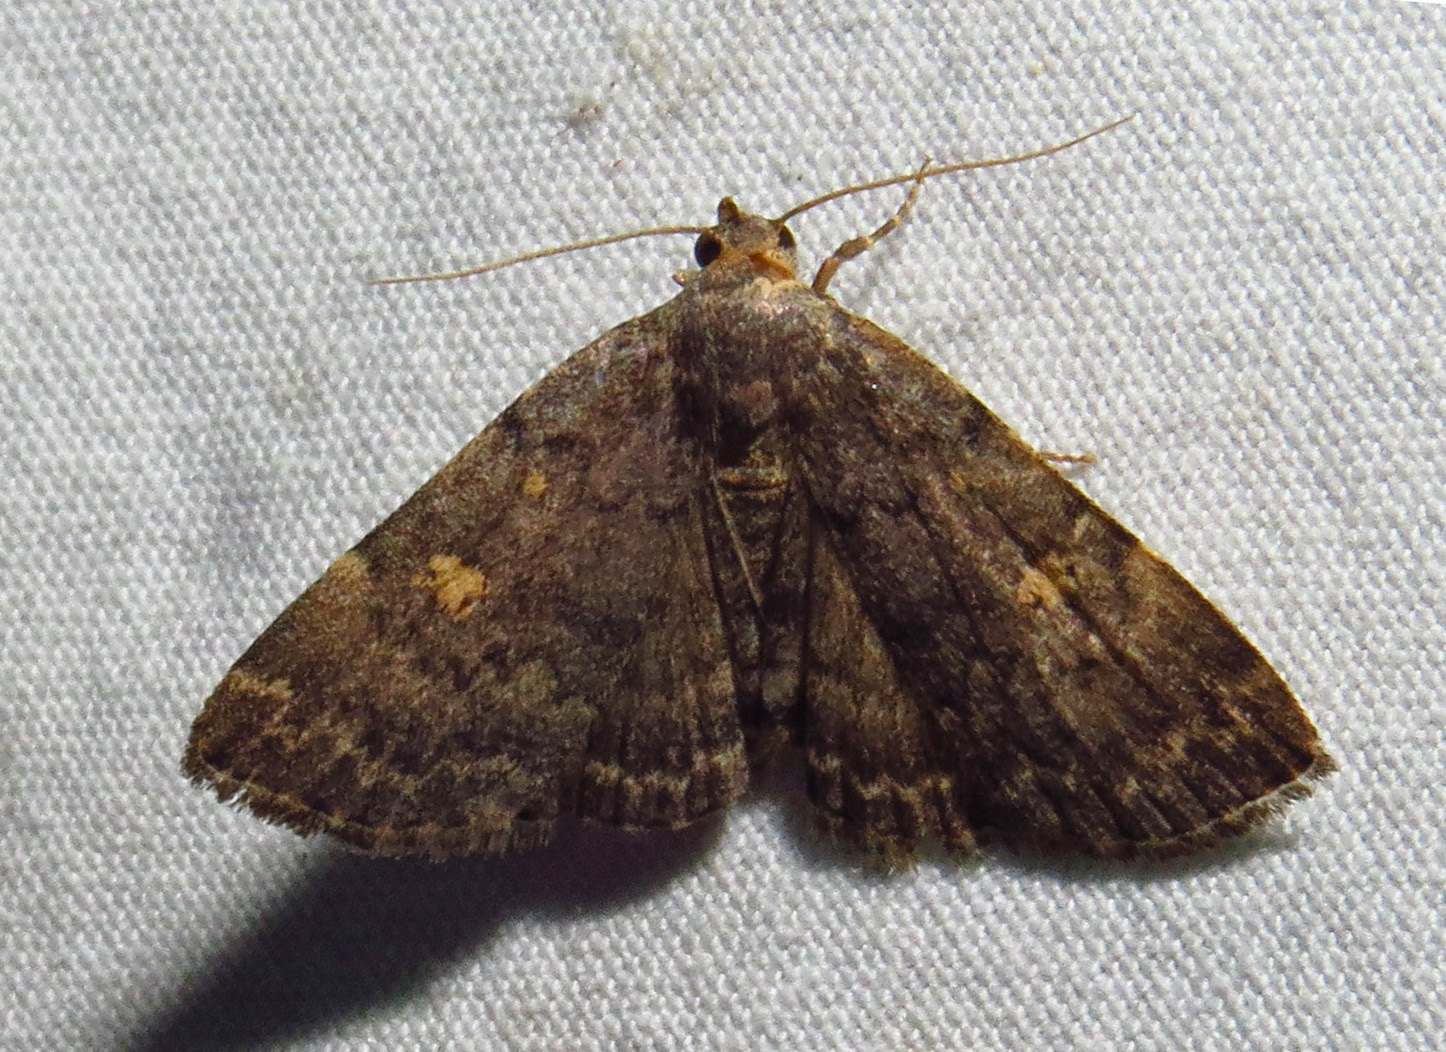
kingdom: Animalia
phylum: Arthropoda
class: Insecta
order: Lepidoptera
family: Erebidae
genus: Idia
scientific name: Idia aemula
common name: Common idia moth
